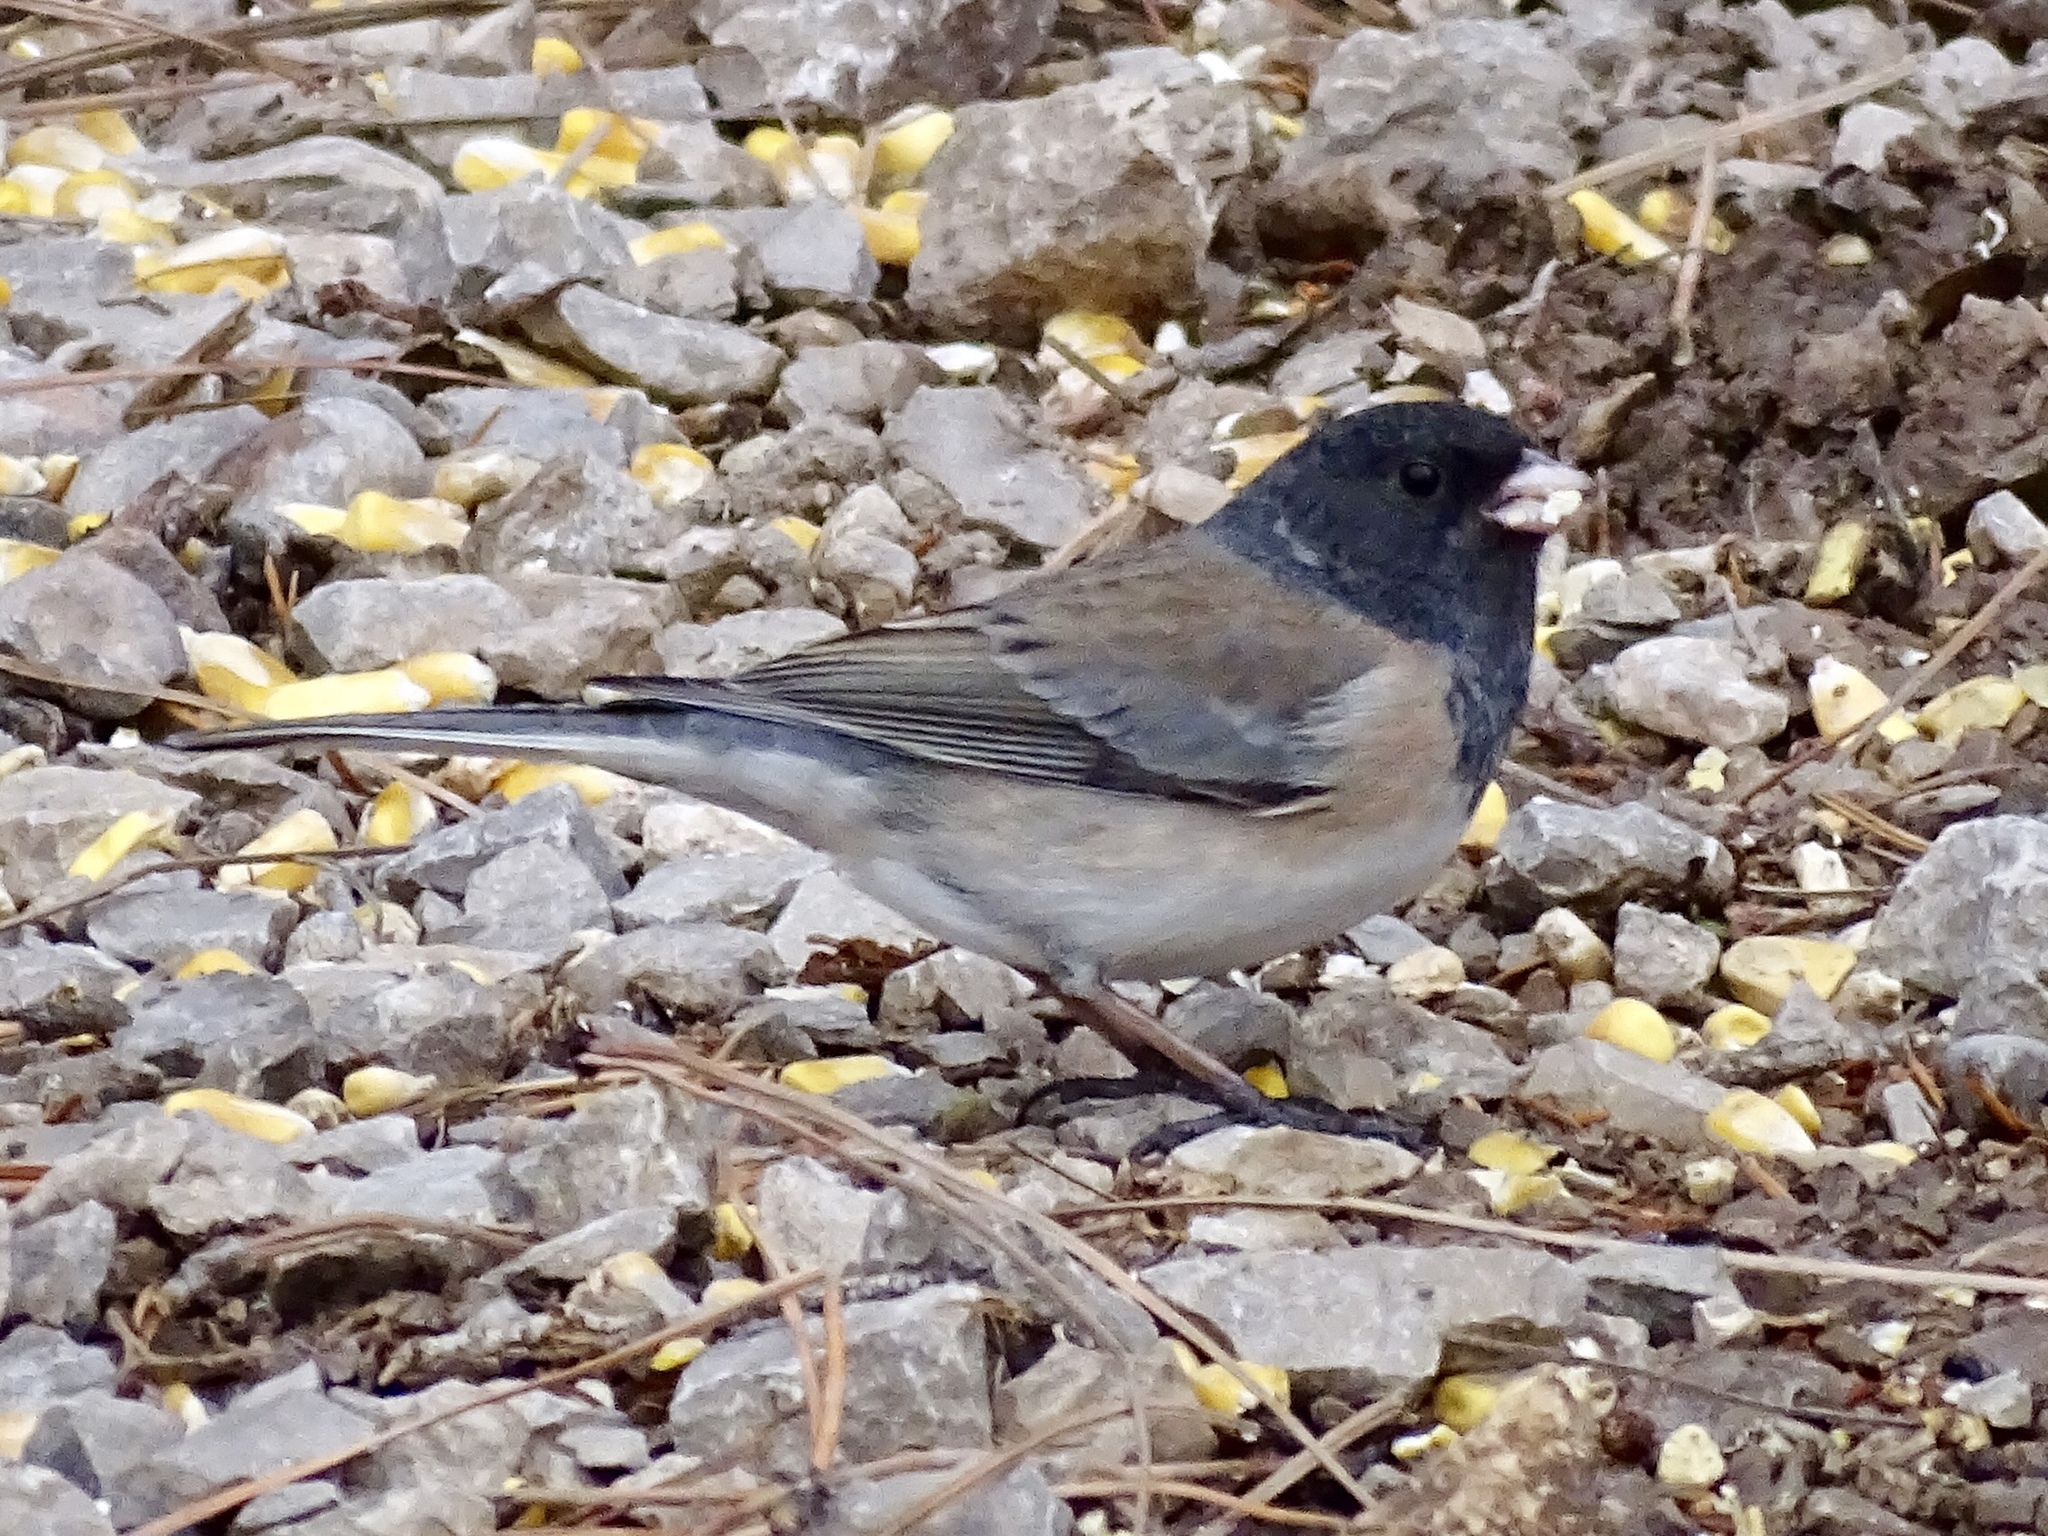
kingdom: Animalia
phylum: Chordata
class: Aves
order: Passeriformes
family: Passerellidae
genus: Junco
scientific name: Junco
